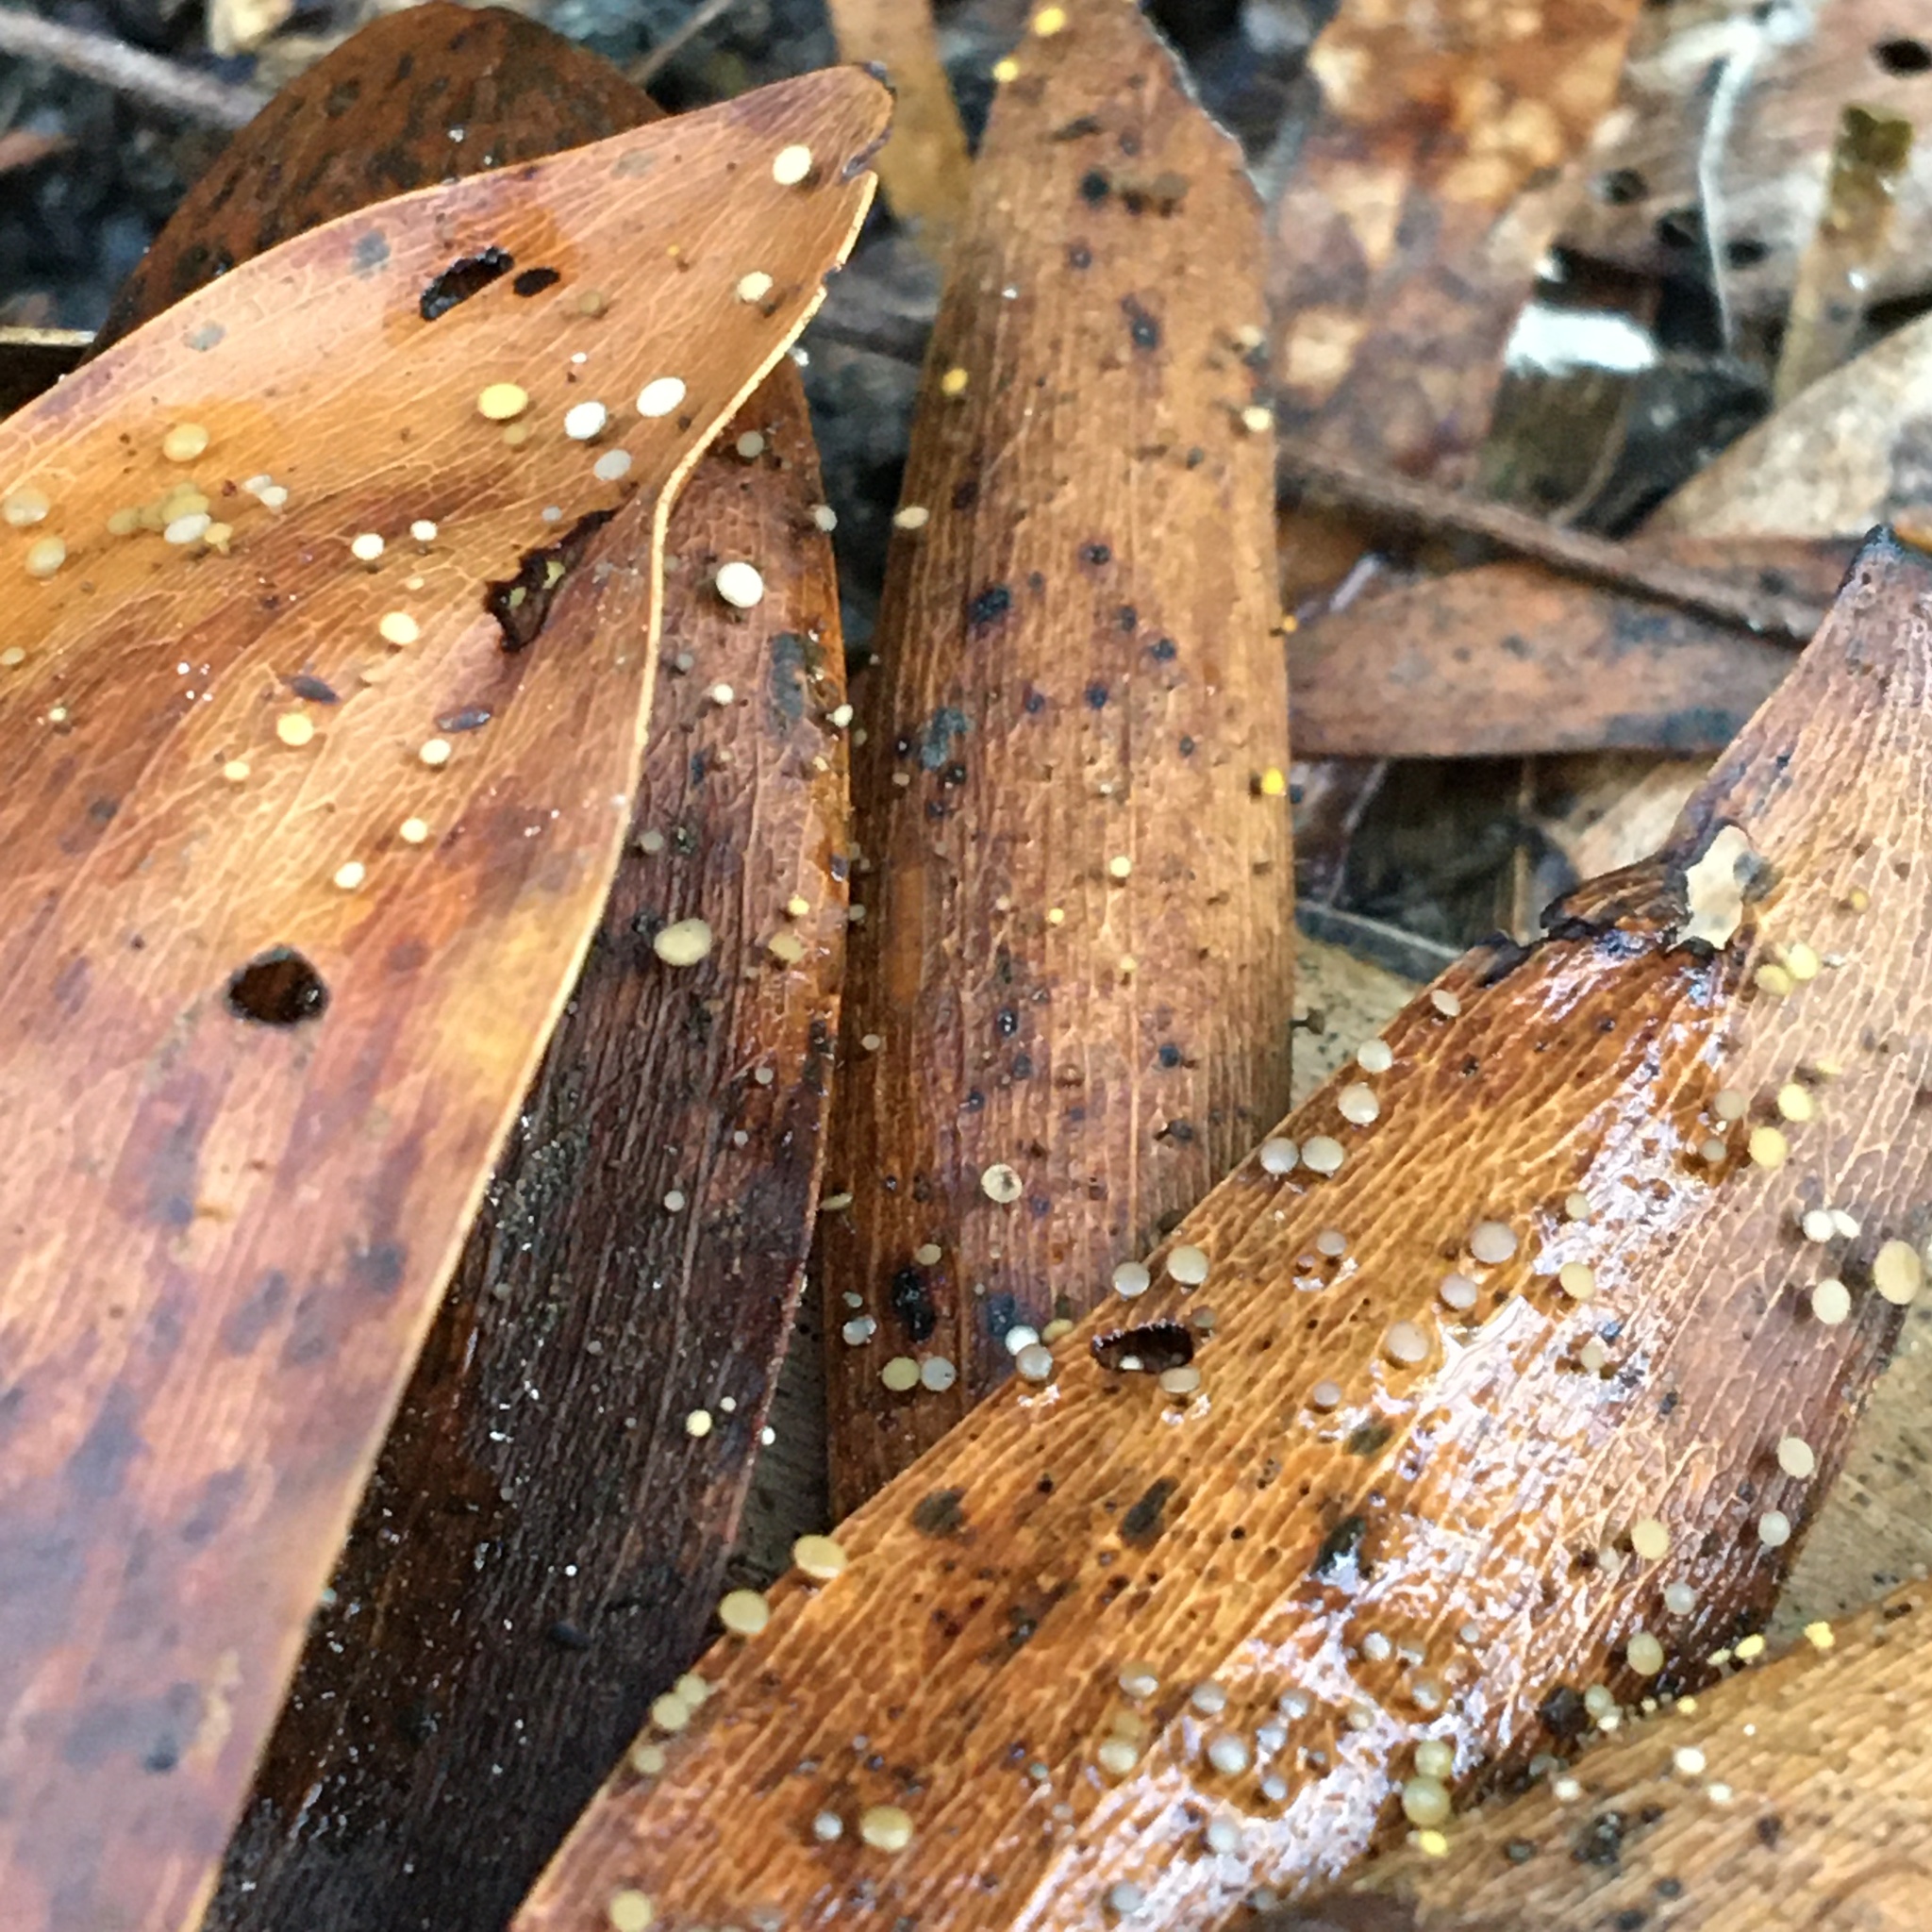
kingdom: Fungi
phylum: Ascomycota
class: Leotiomycetes
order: Helotiales
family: Helotiaceae
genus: Hymenotorrendiella
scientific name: Hymenotorrendiella eucalypti
